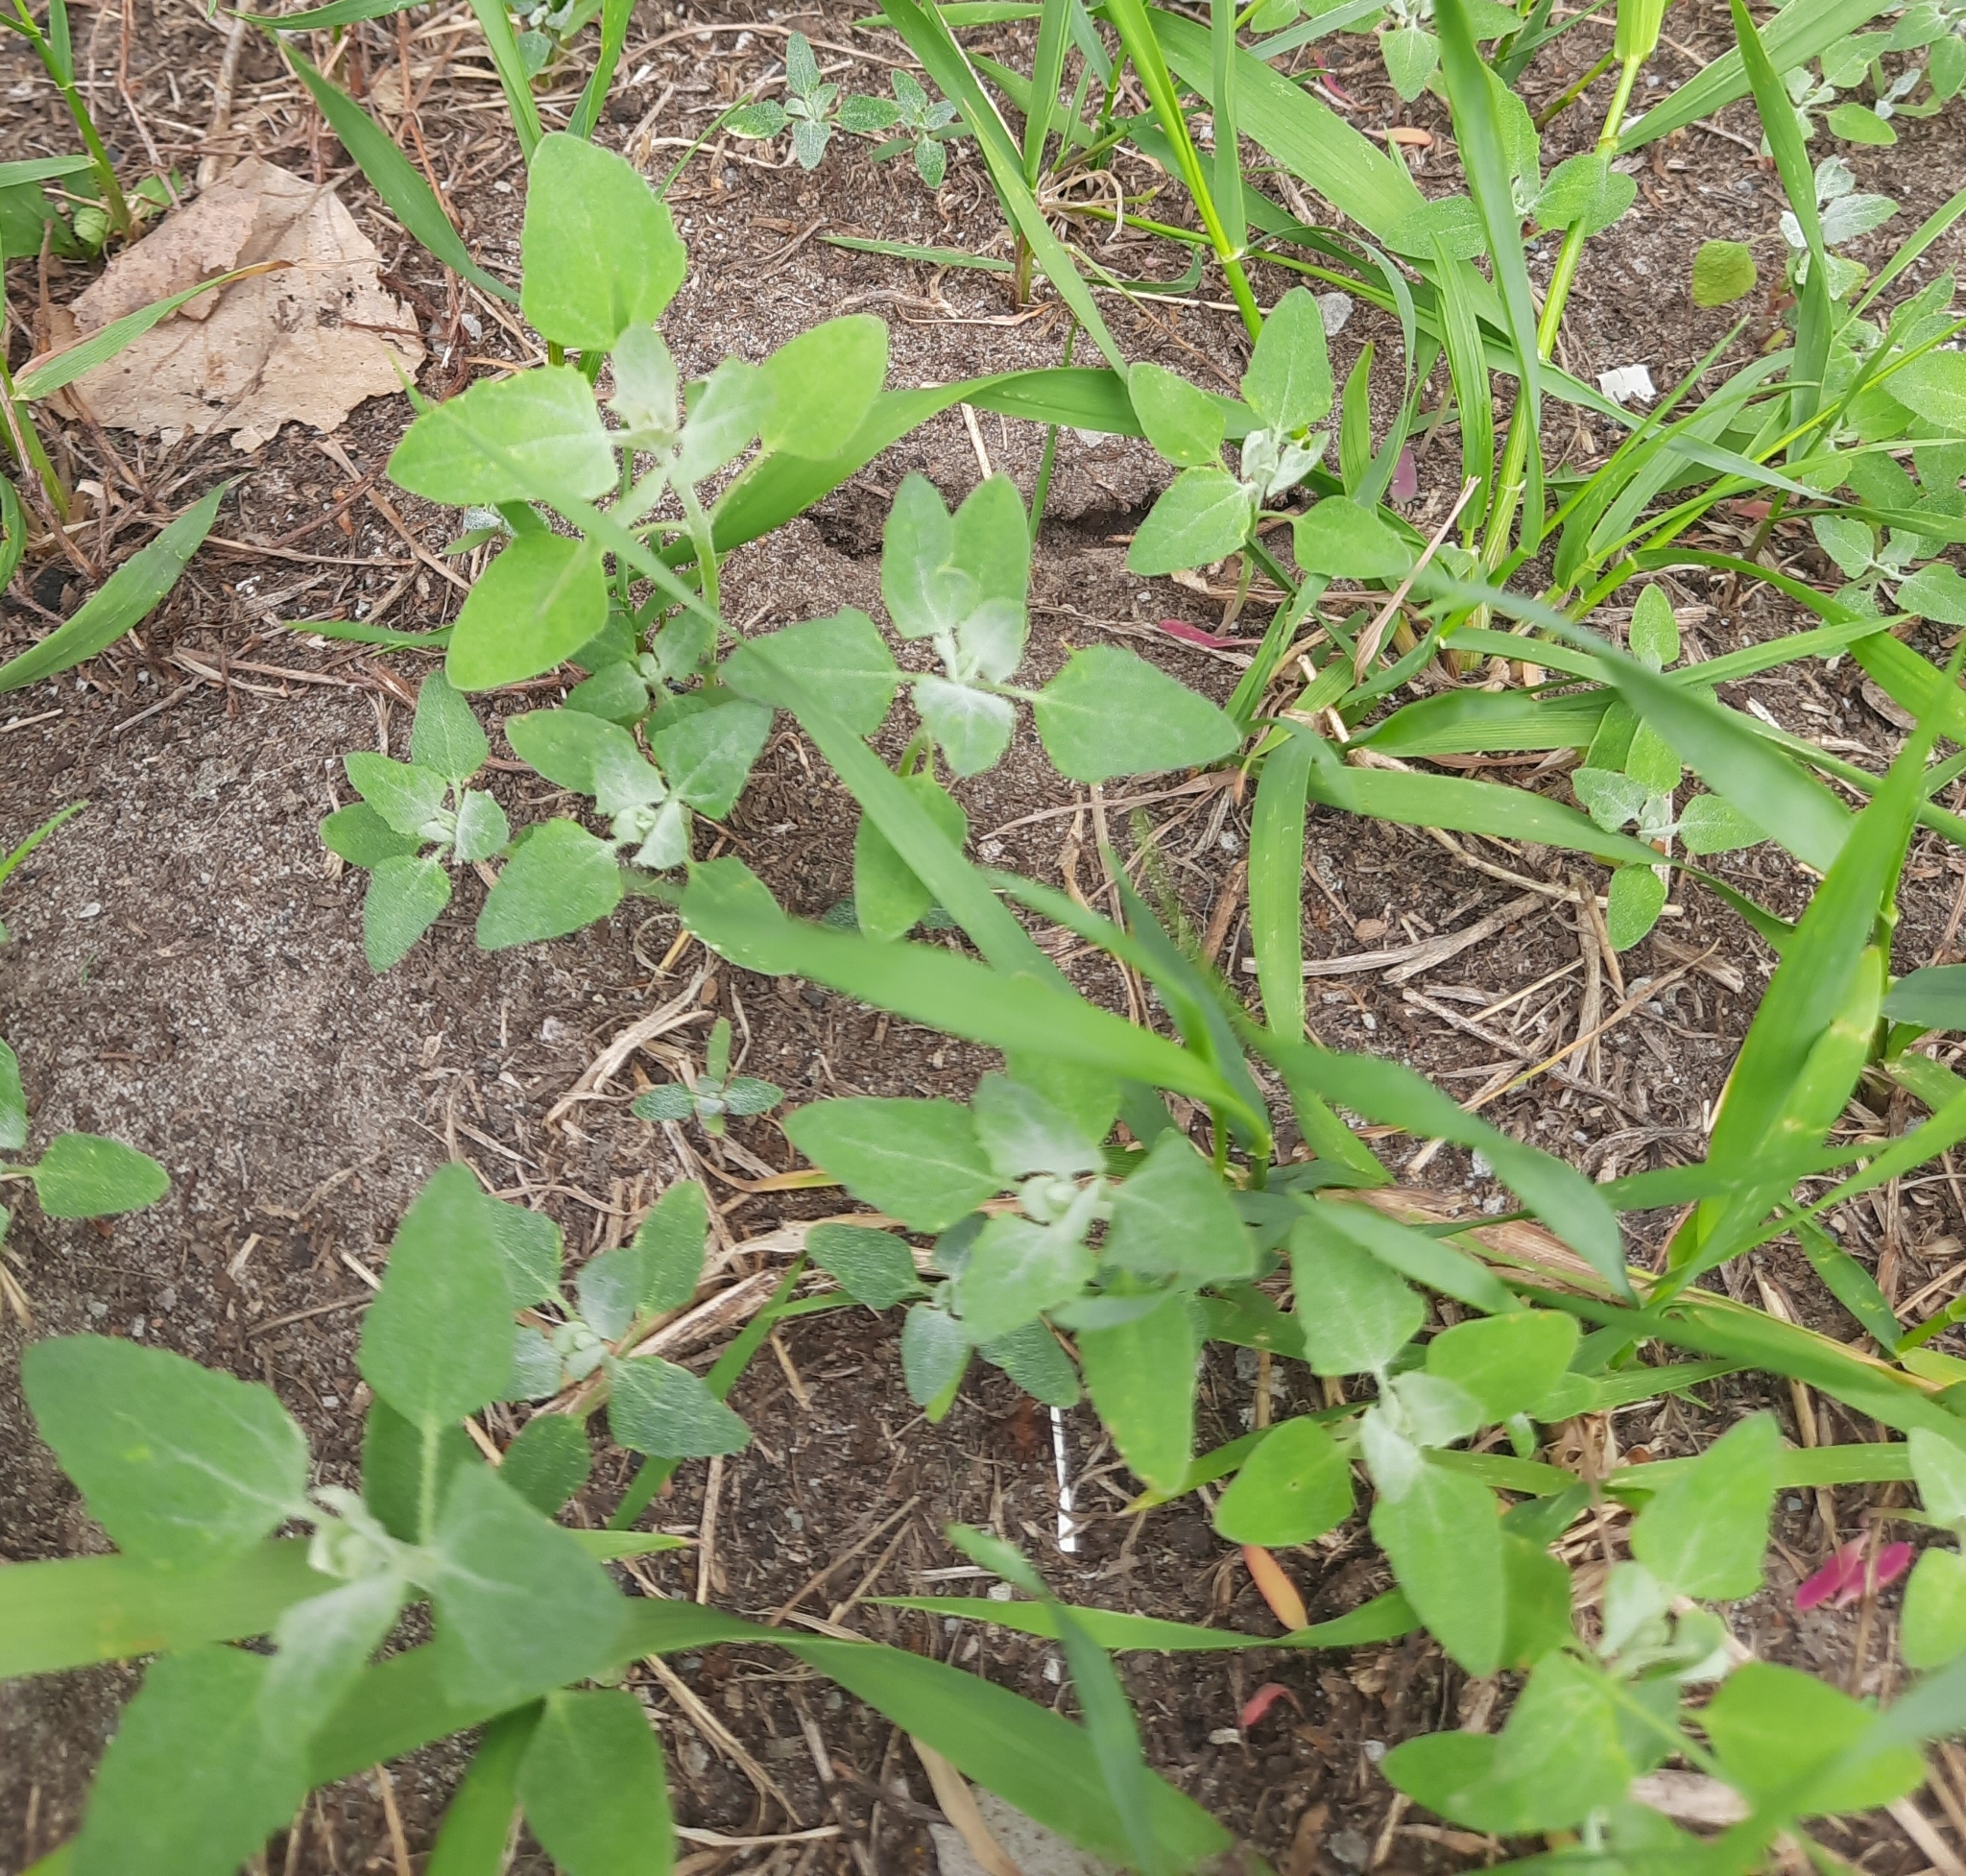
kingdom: Plantae
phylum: Tracheophyta
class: Magnoliopsida
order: Caryophyllales
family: Amaranthaceae
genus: Chenopodium
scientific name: Chenopodium album
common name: Fat-hen
